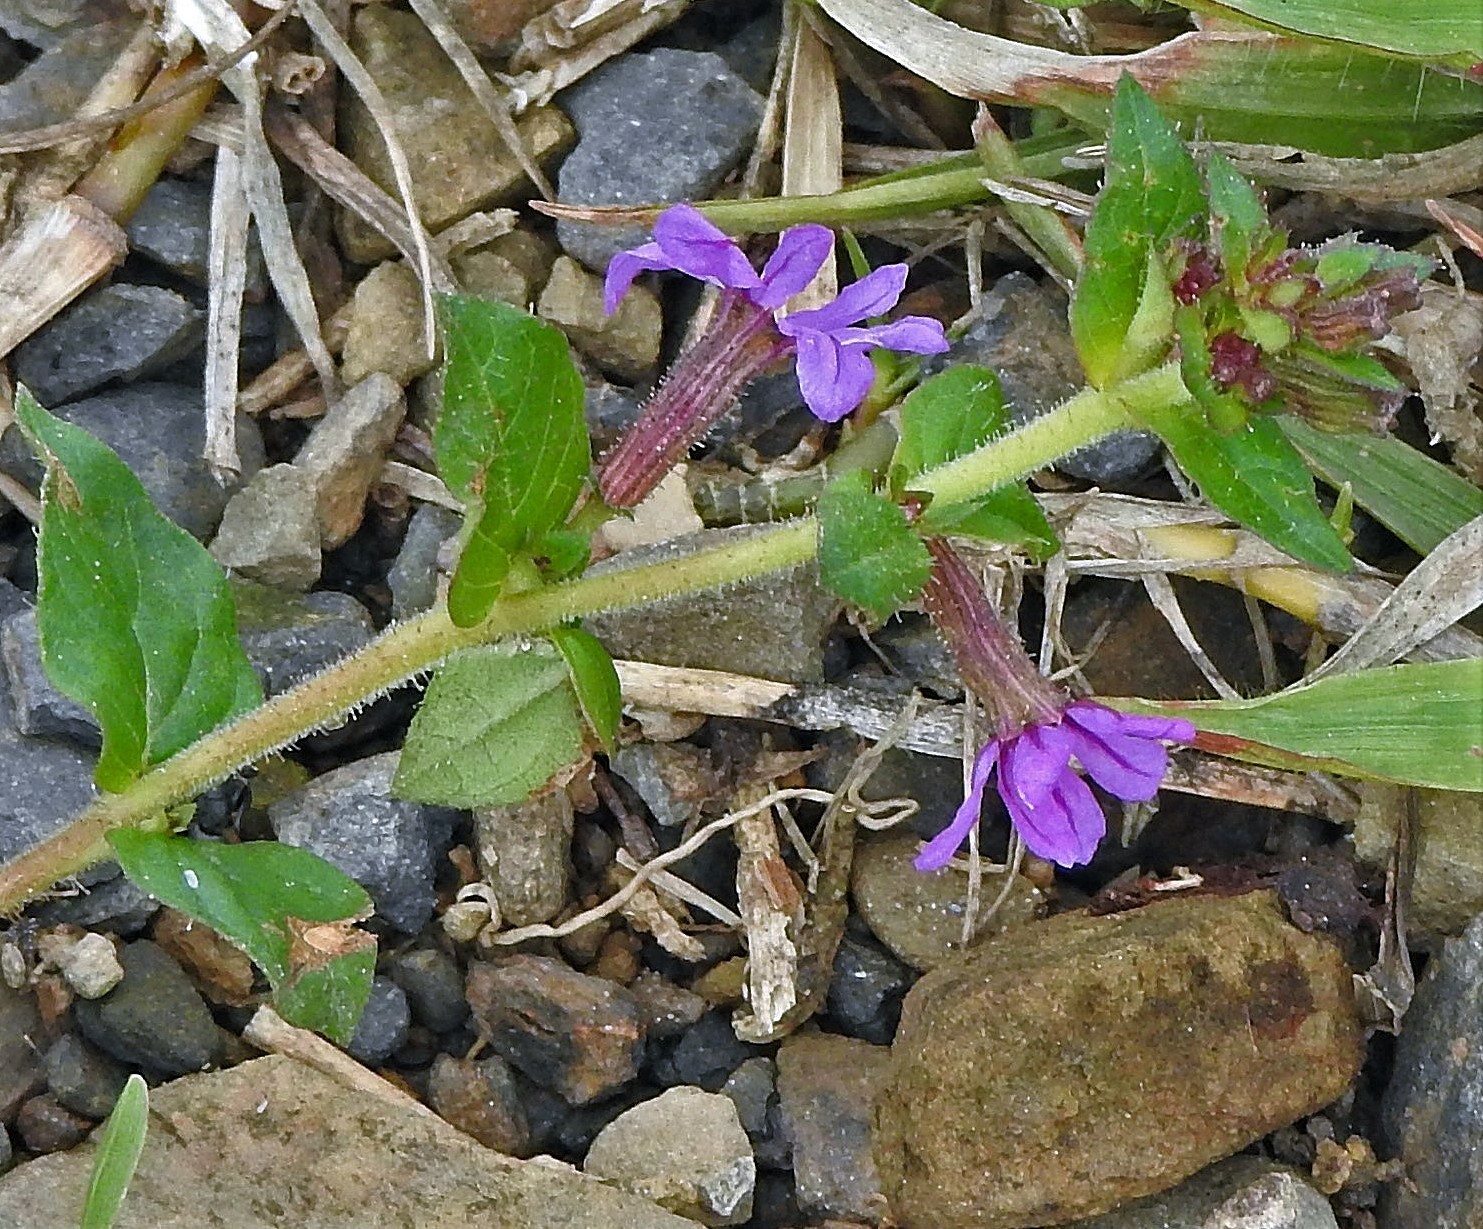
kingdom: Plantae
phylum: Tracheophyta
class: Magnoliopsida
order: Myrtales
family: Lythraceae
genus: Cuphea
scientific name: Cuphea calophylla
